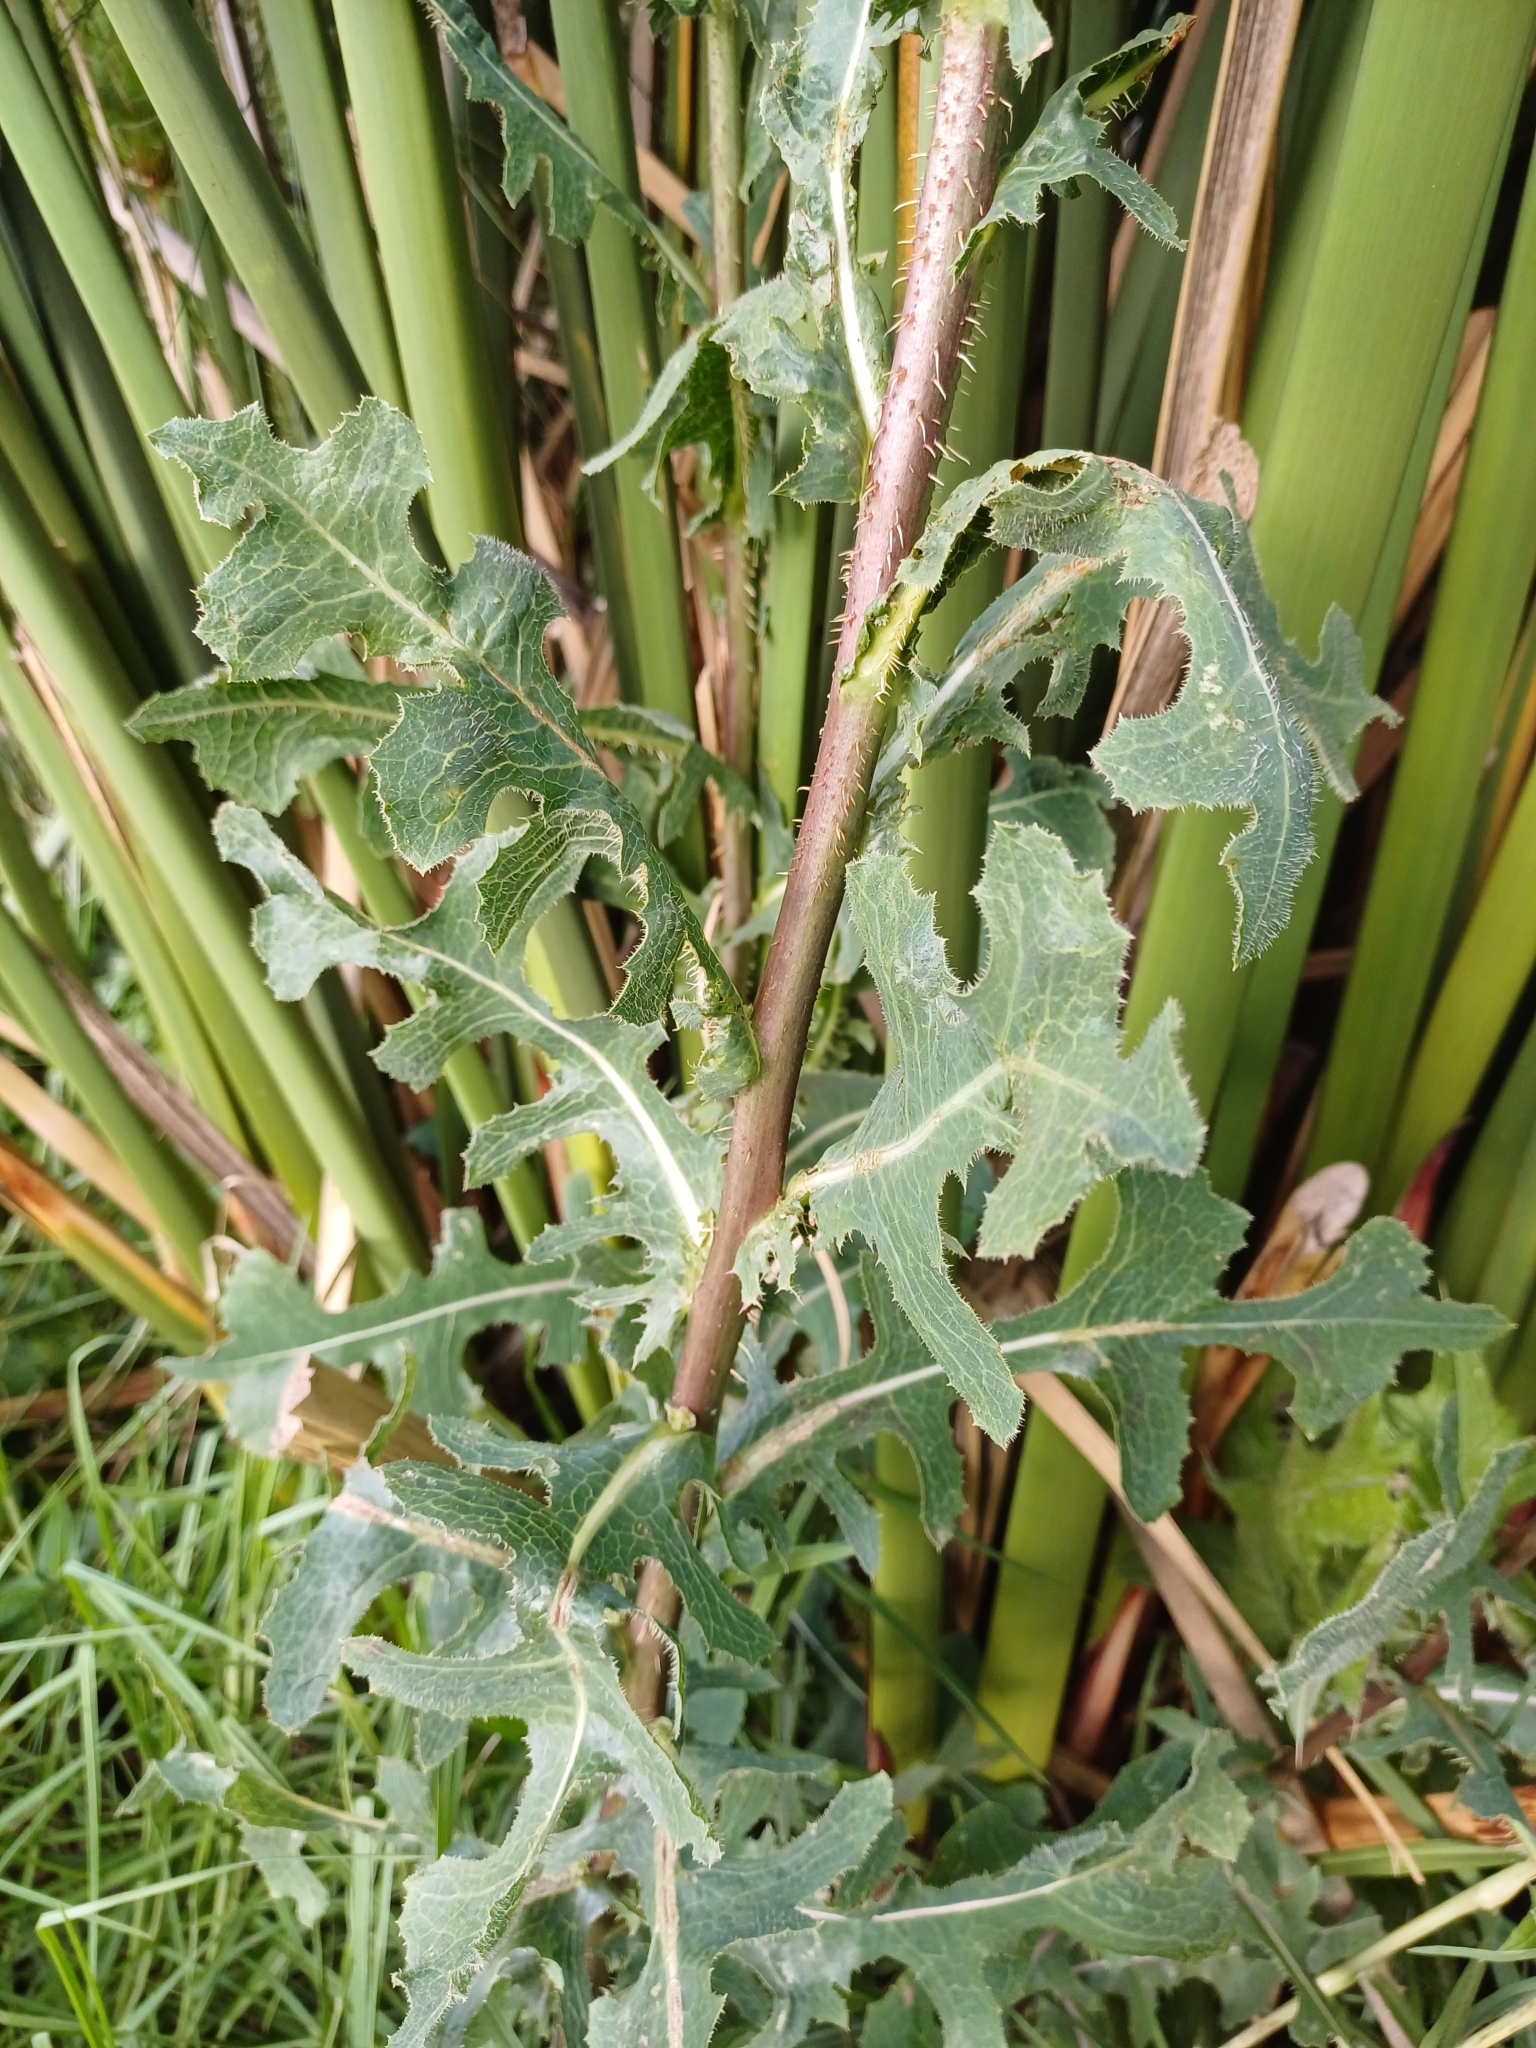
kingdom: Plantae
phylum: Tracheophyta
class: Magnoliopsida
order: Asterales
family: Asteraceae
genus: Lactuca
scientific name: Lactuca serriola
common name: Prickly lettuce
